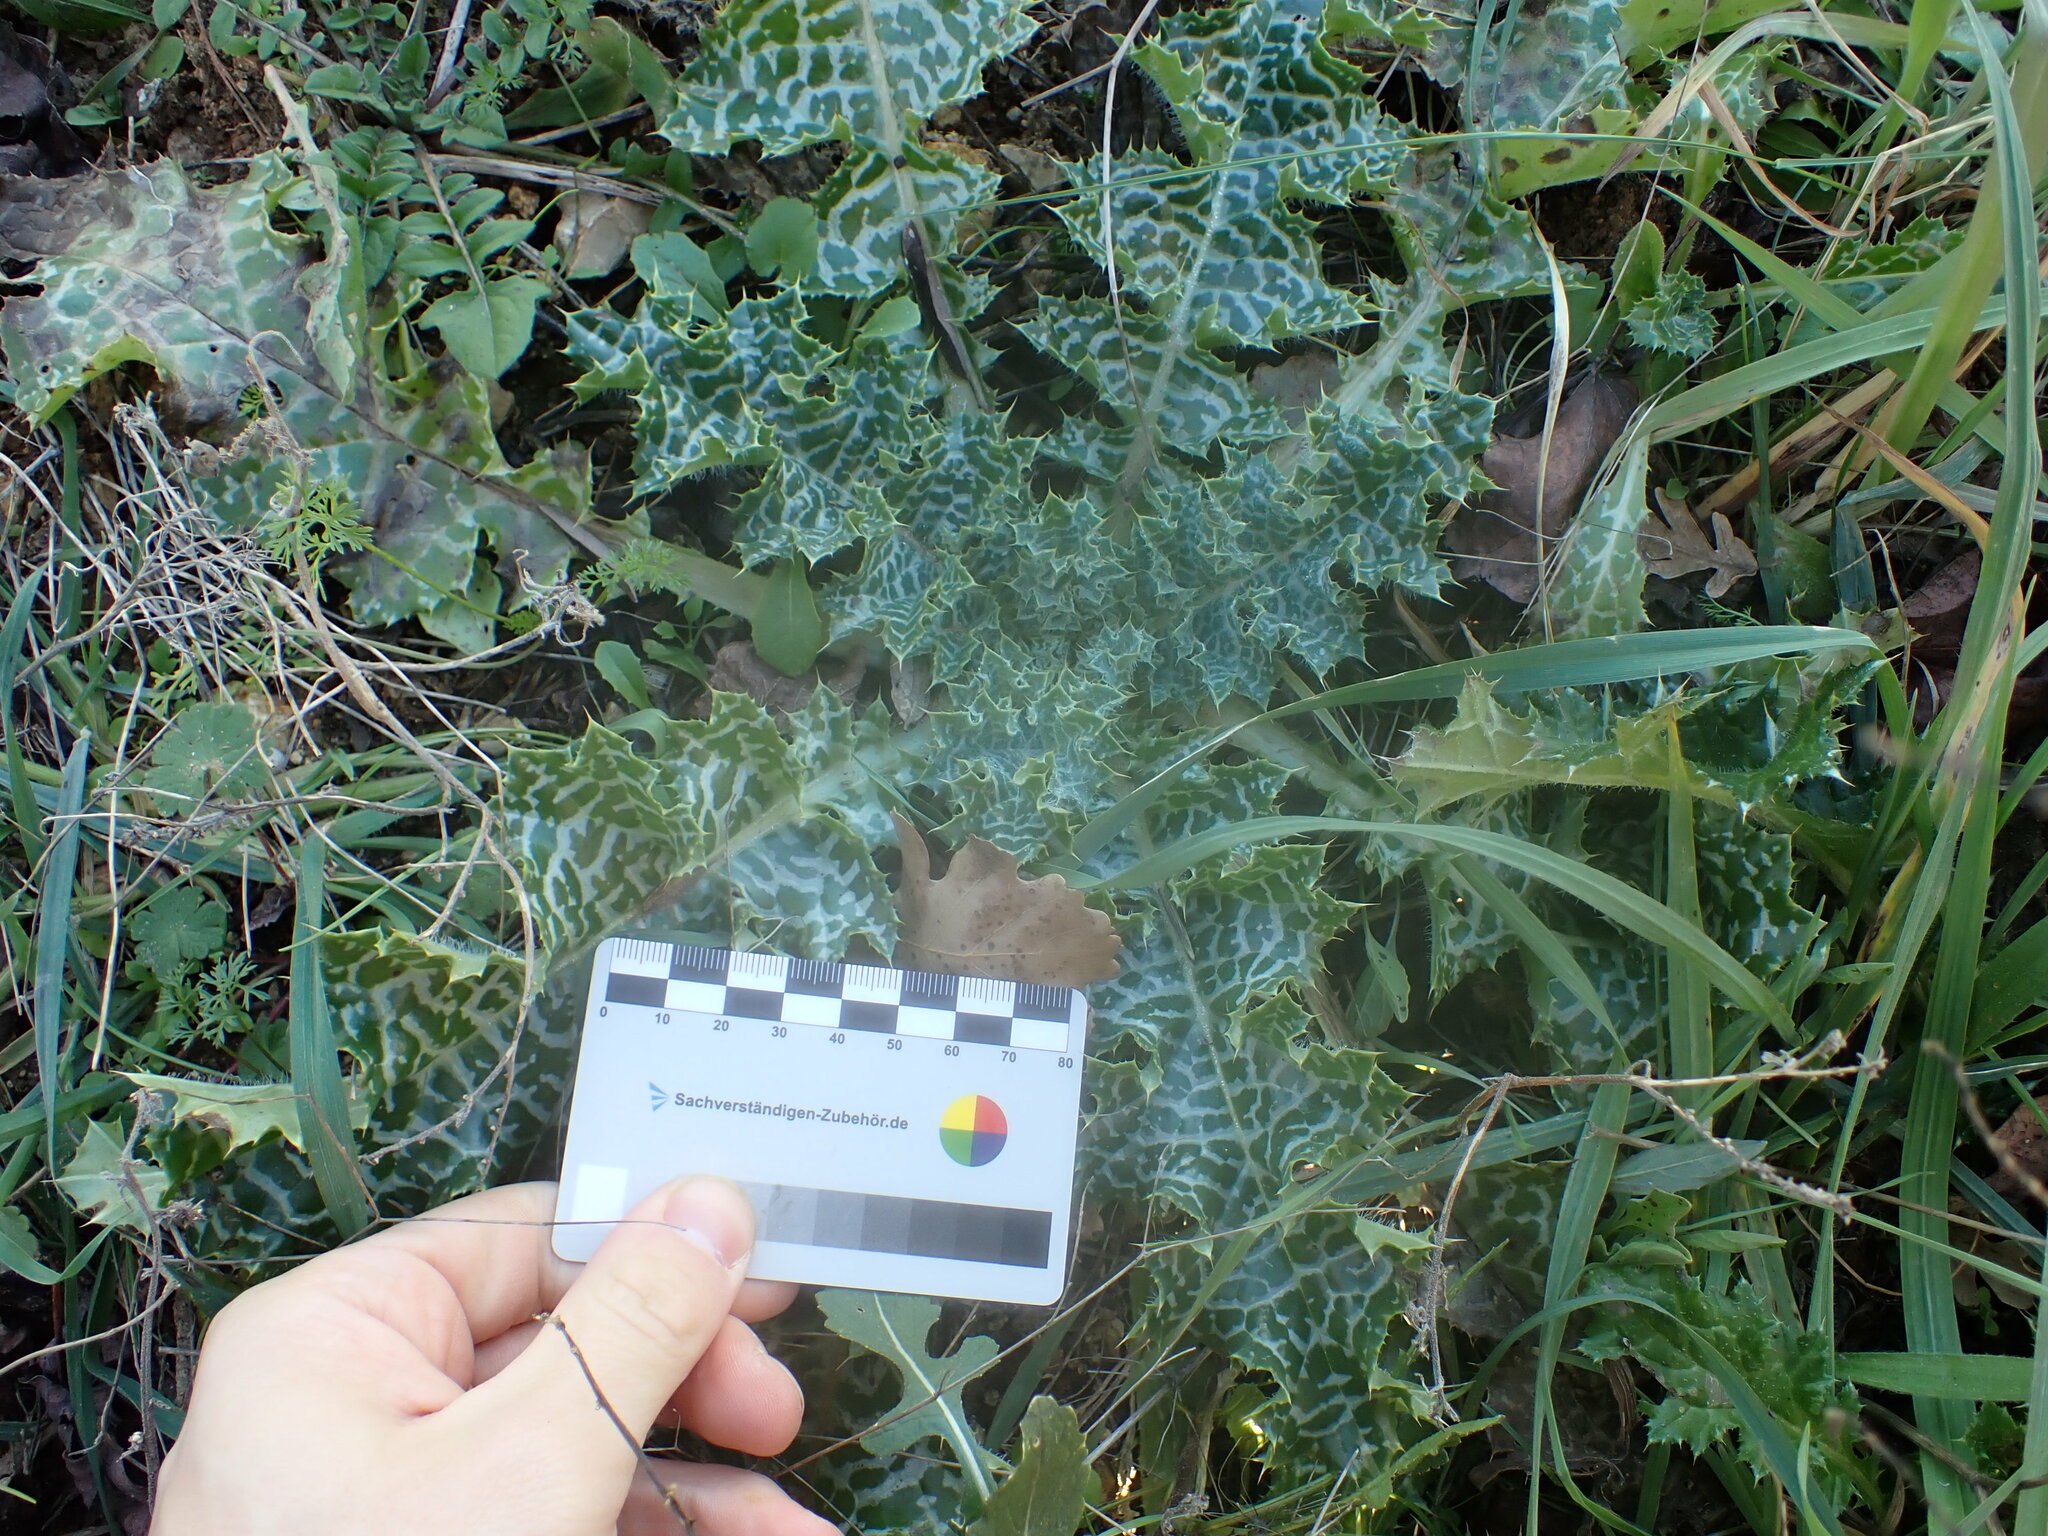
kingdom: Plantae
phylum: Tracheophyta
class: Magnoliopsida
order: Asterales
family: Asteraceae
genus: Silybum
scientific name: Silybum marianum
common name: Milk thistle
